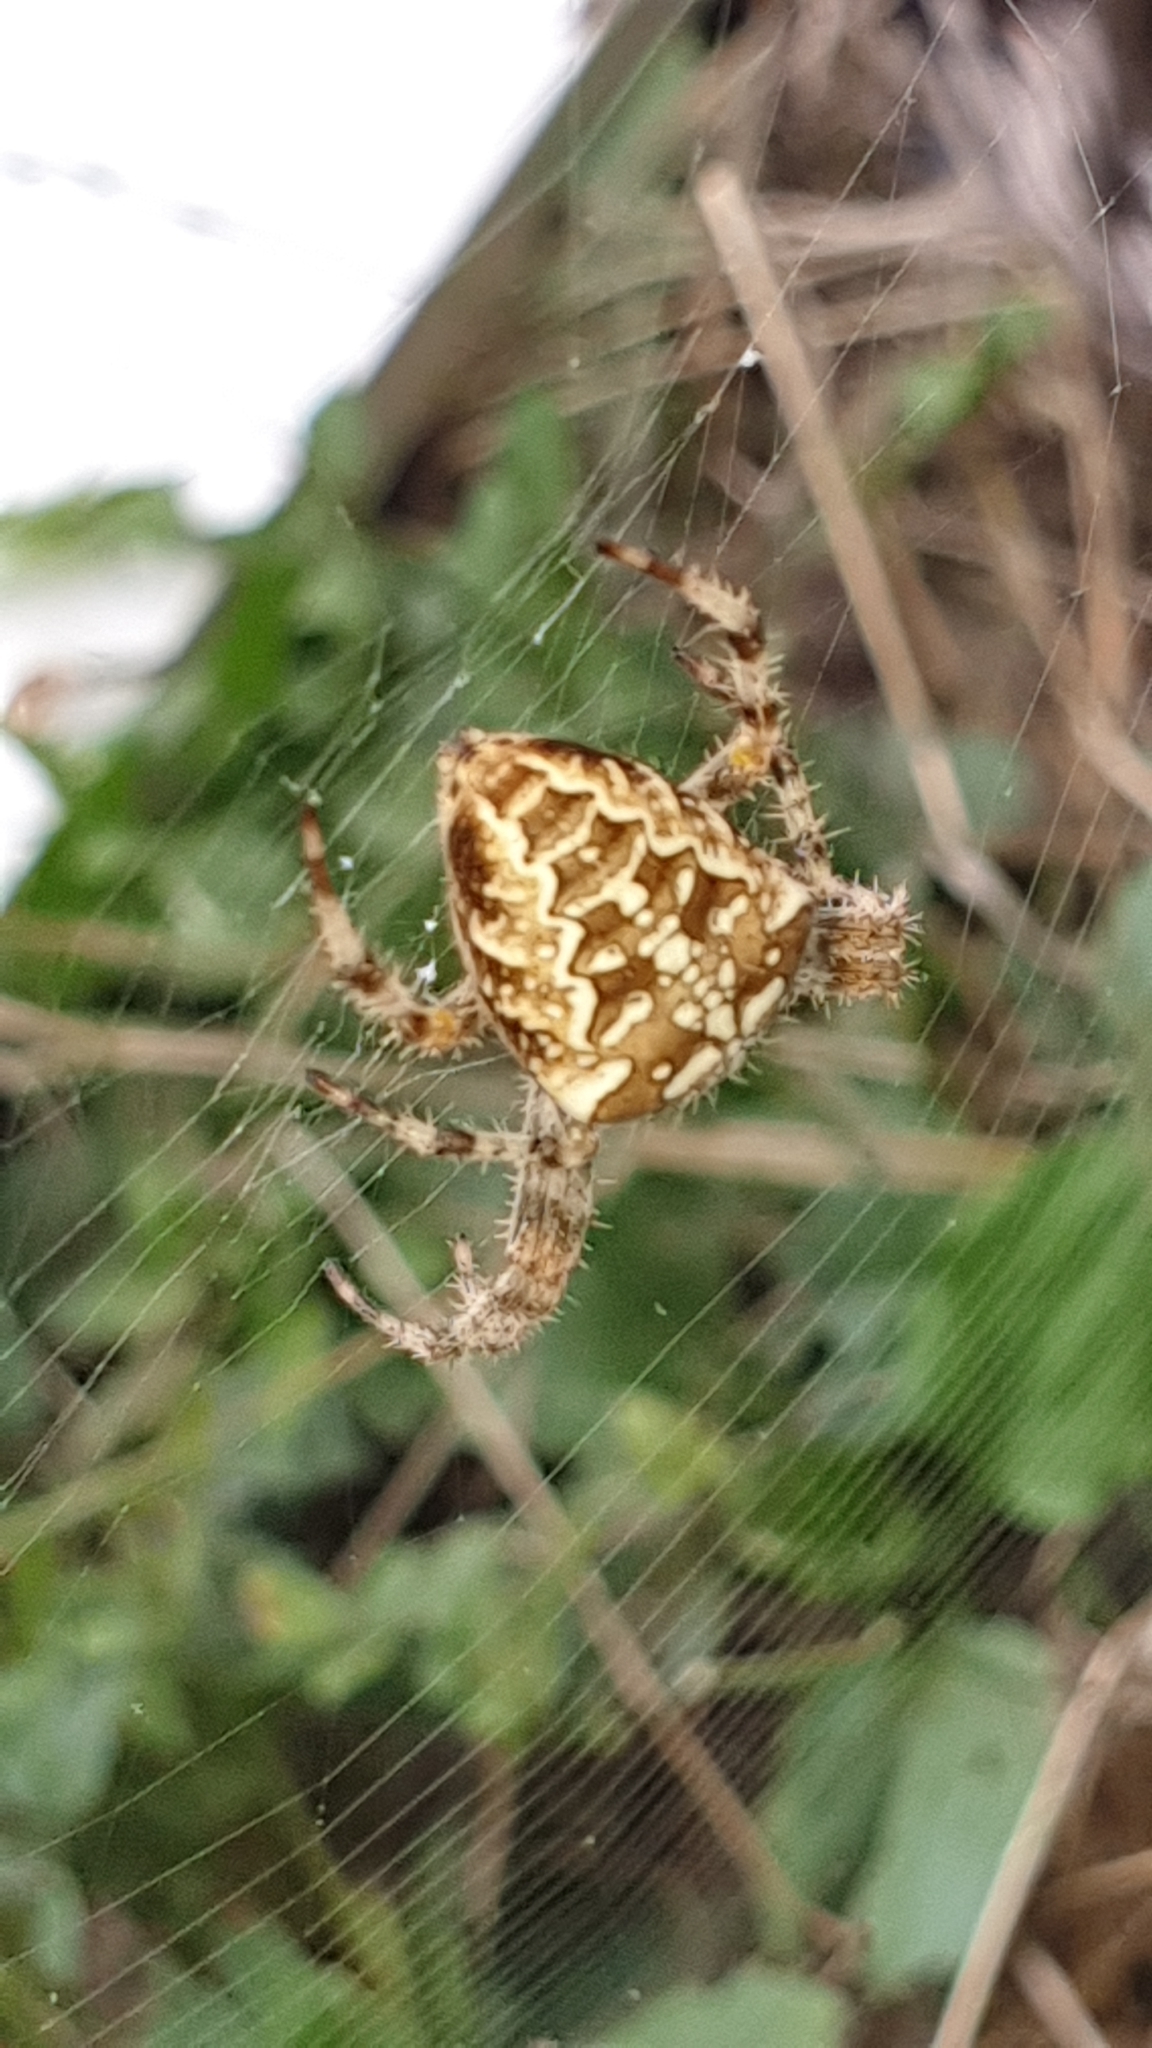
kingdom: Animalia
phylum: Arthropoda
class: Arachnida
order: Araneae
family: Araneidae
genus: Araneus
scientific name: Araneus diadematus
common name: Cross orbweaver
